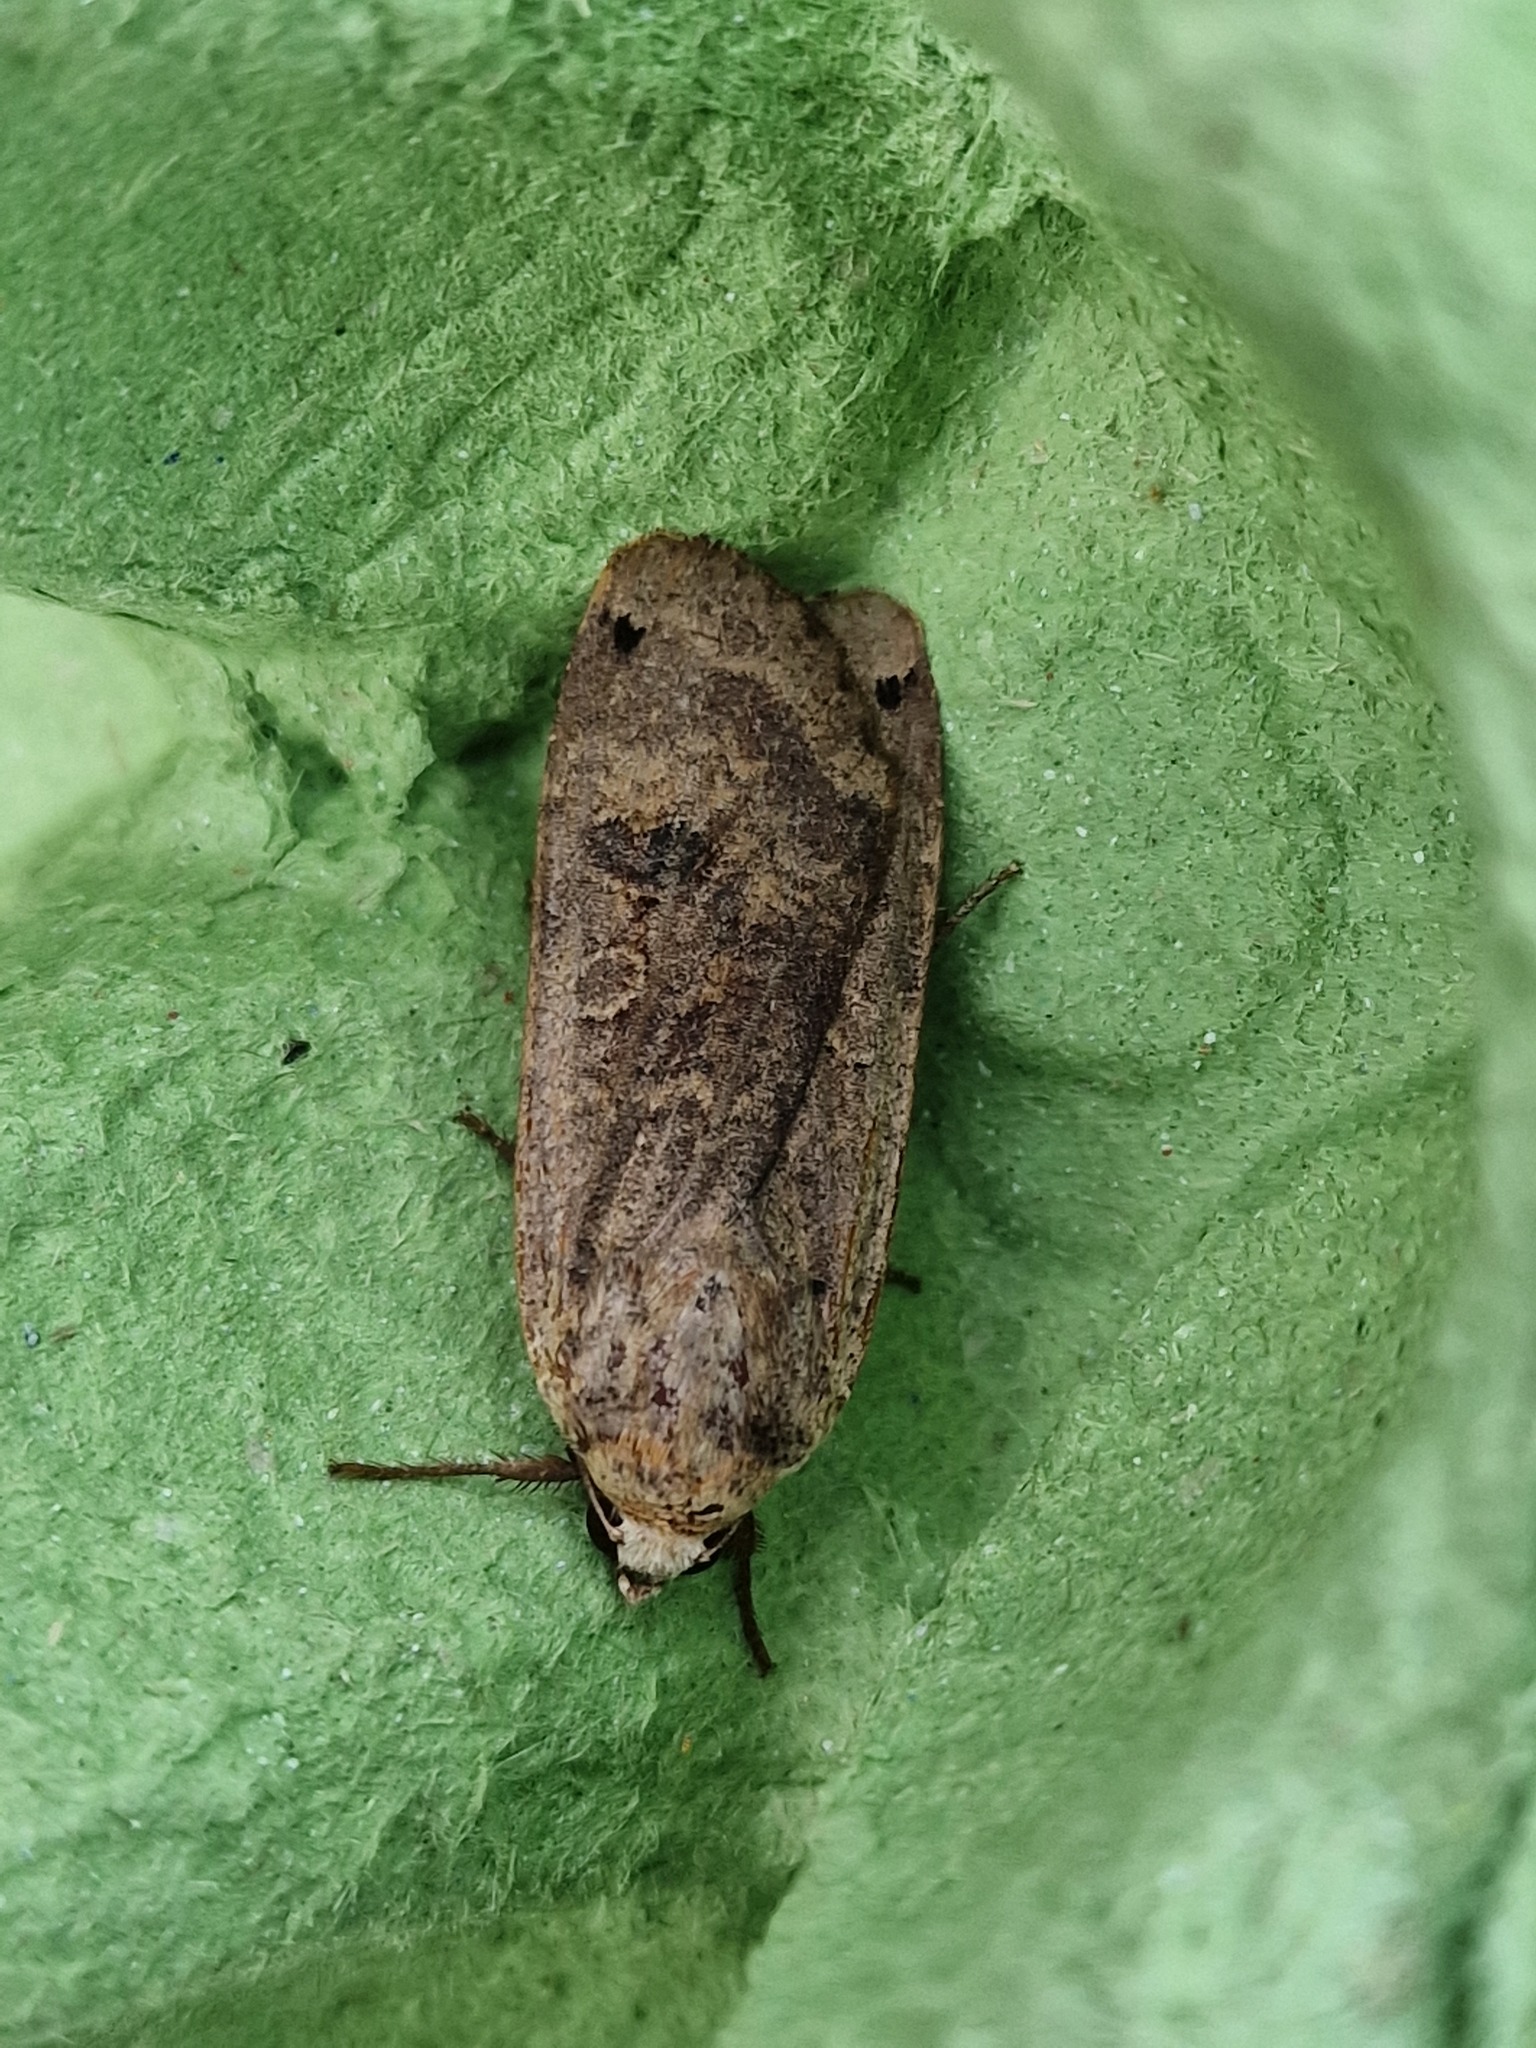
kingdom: Animalia
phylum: Arthropoda
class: Insecta
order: Lepidoptera
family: Noctuidae
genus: Noctua
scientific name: Noctua pronuba
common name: Large yellow underwing
